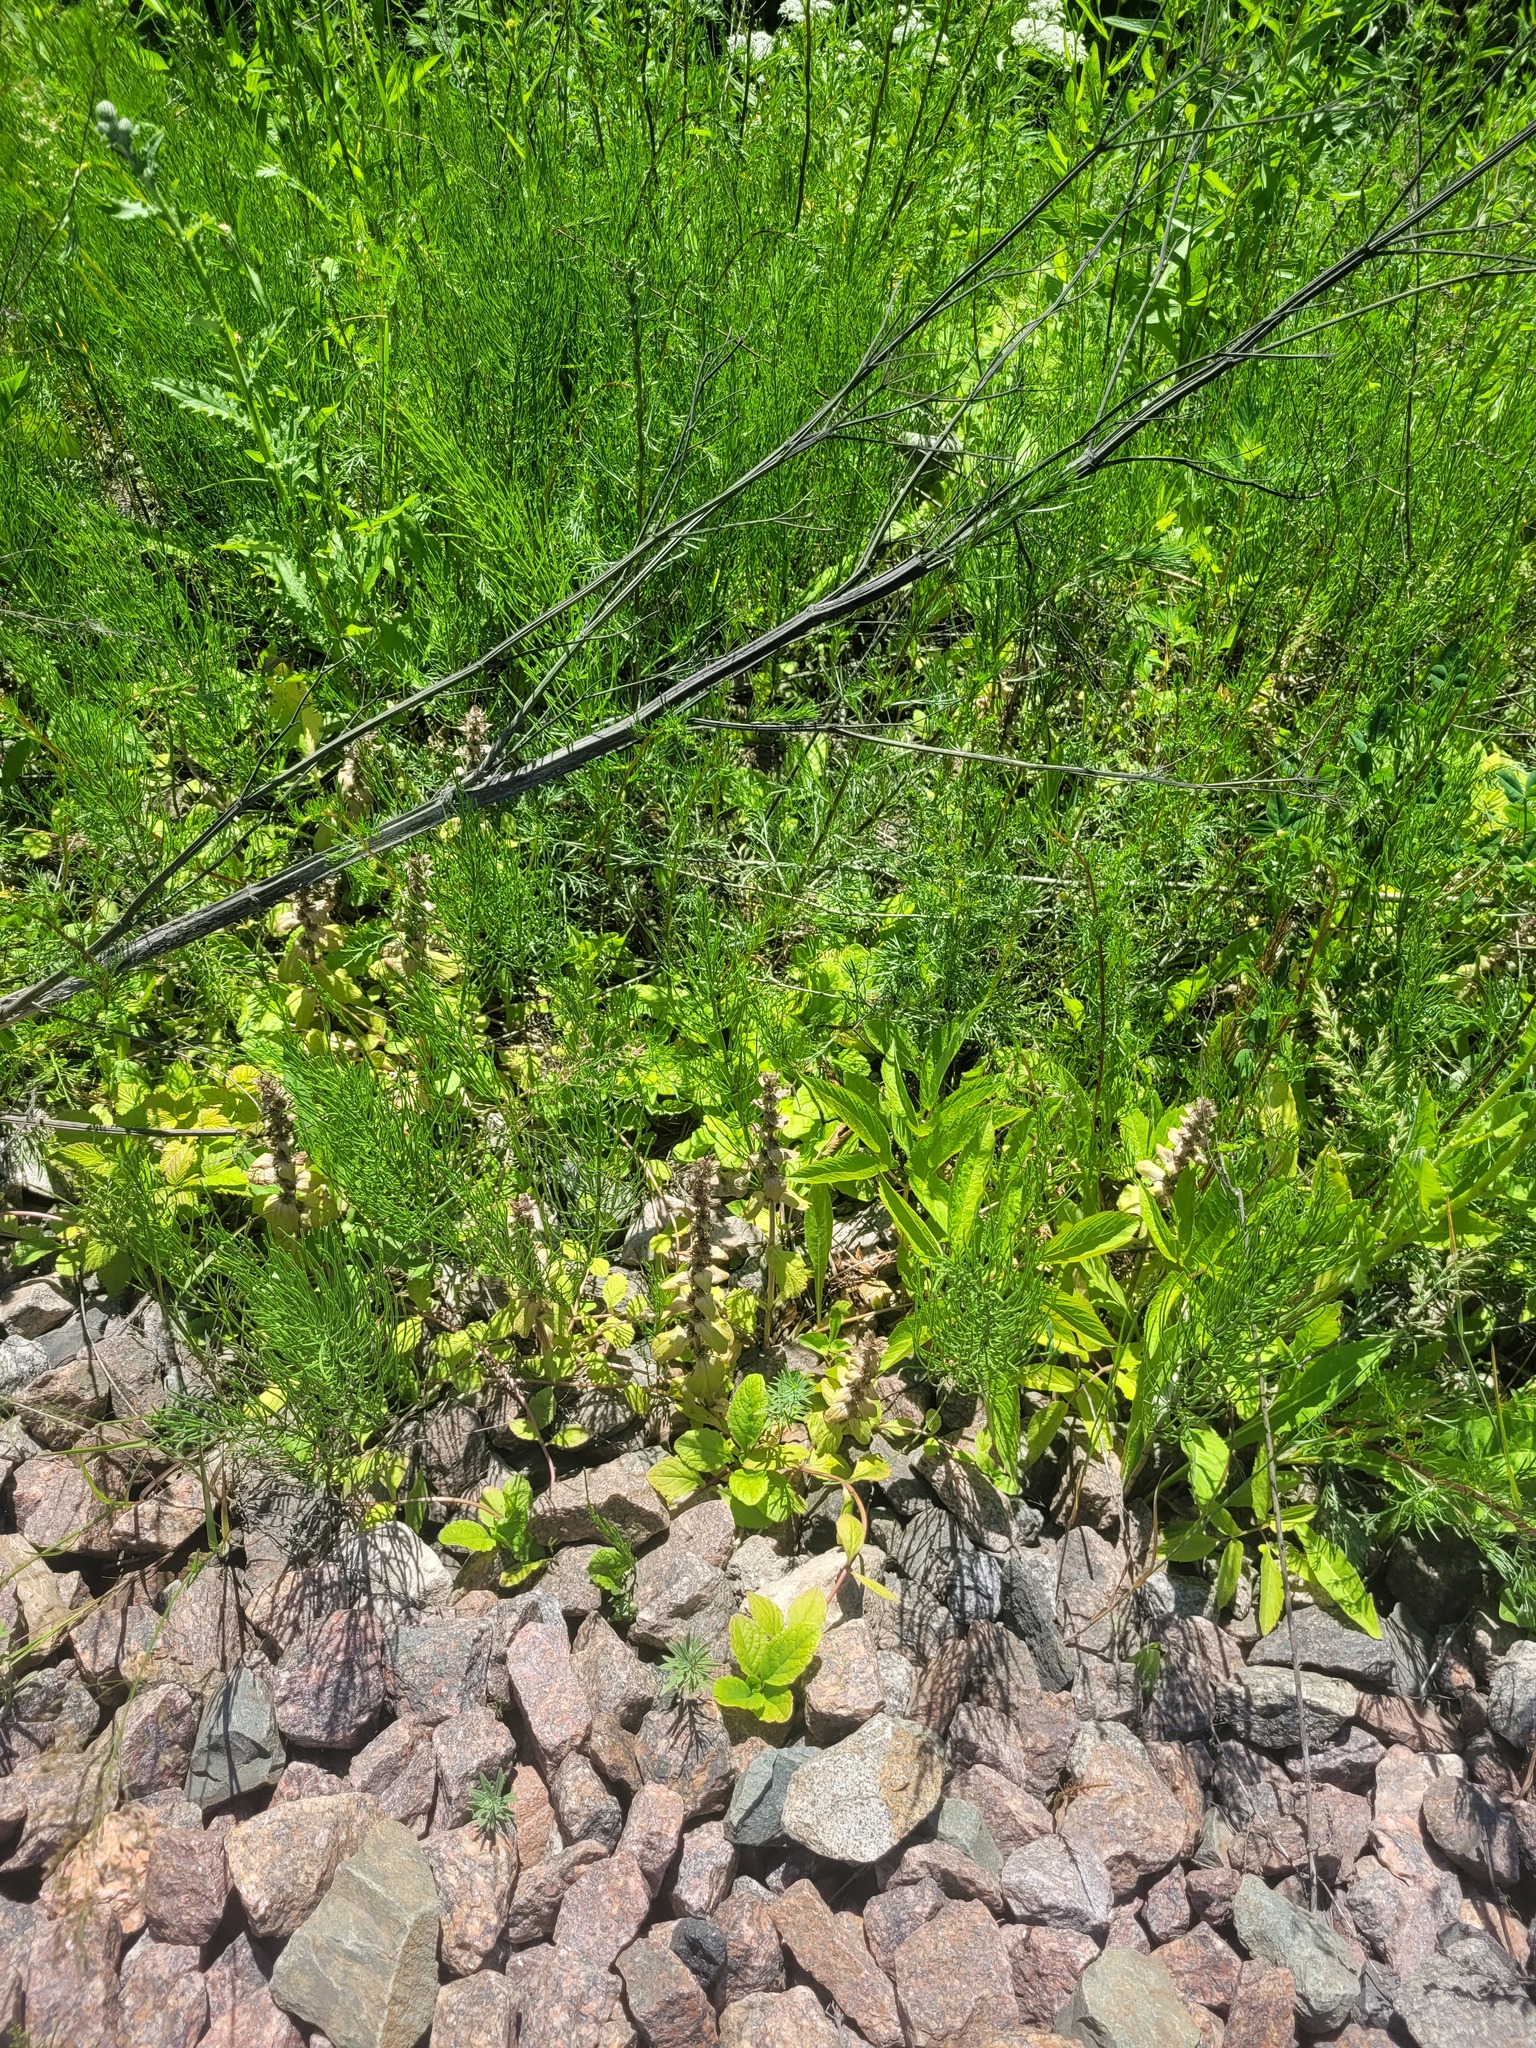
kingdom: Plantae
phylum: Tracheophyta
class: Magnoliopsida
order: Lamiales
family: Lamiaceae
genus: Ajuga
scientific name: Ajuga reptans
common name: Bugle
